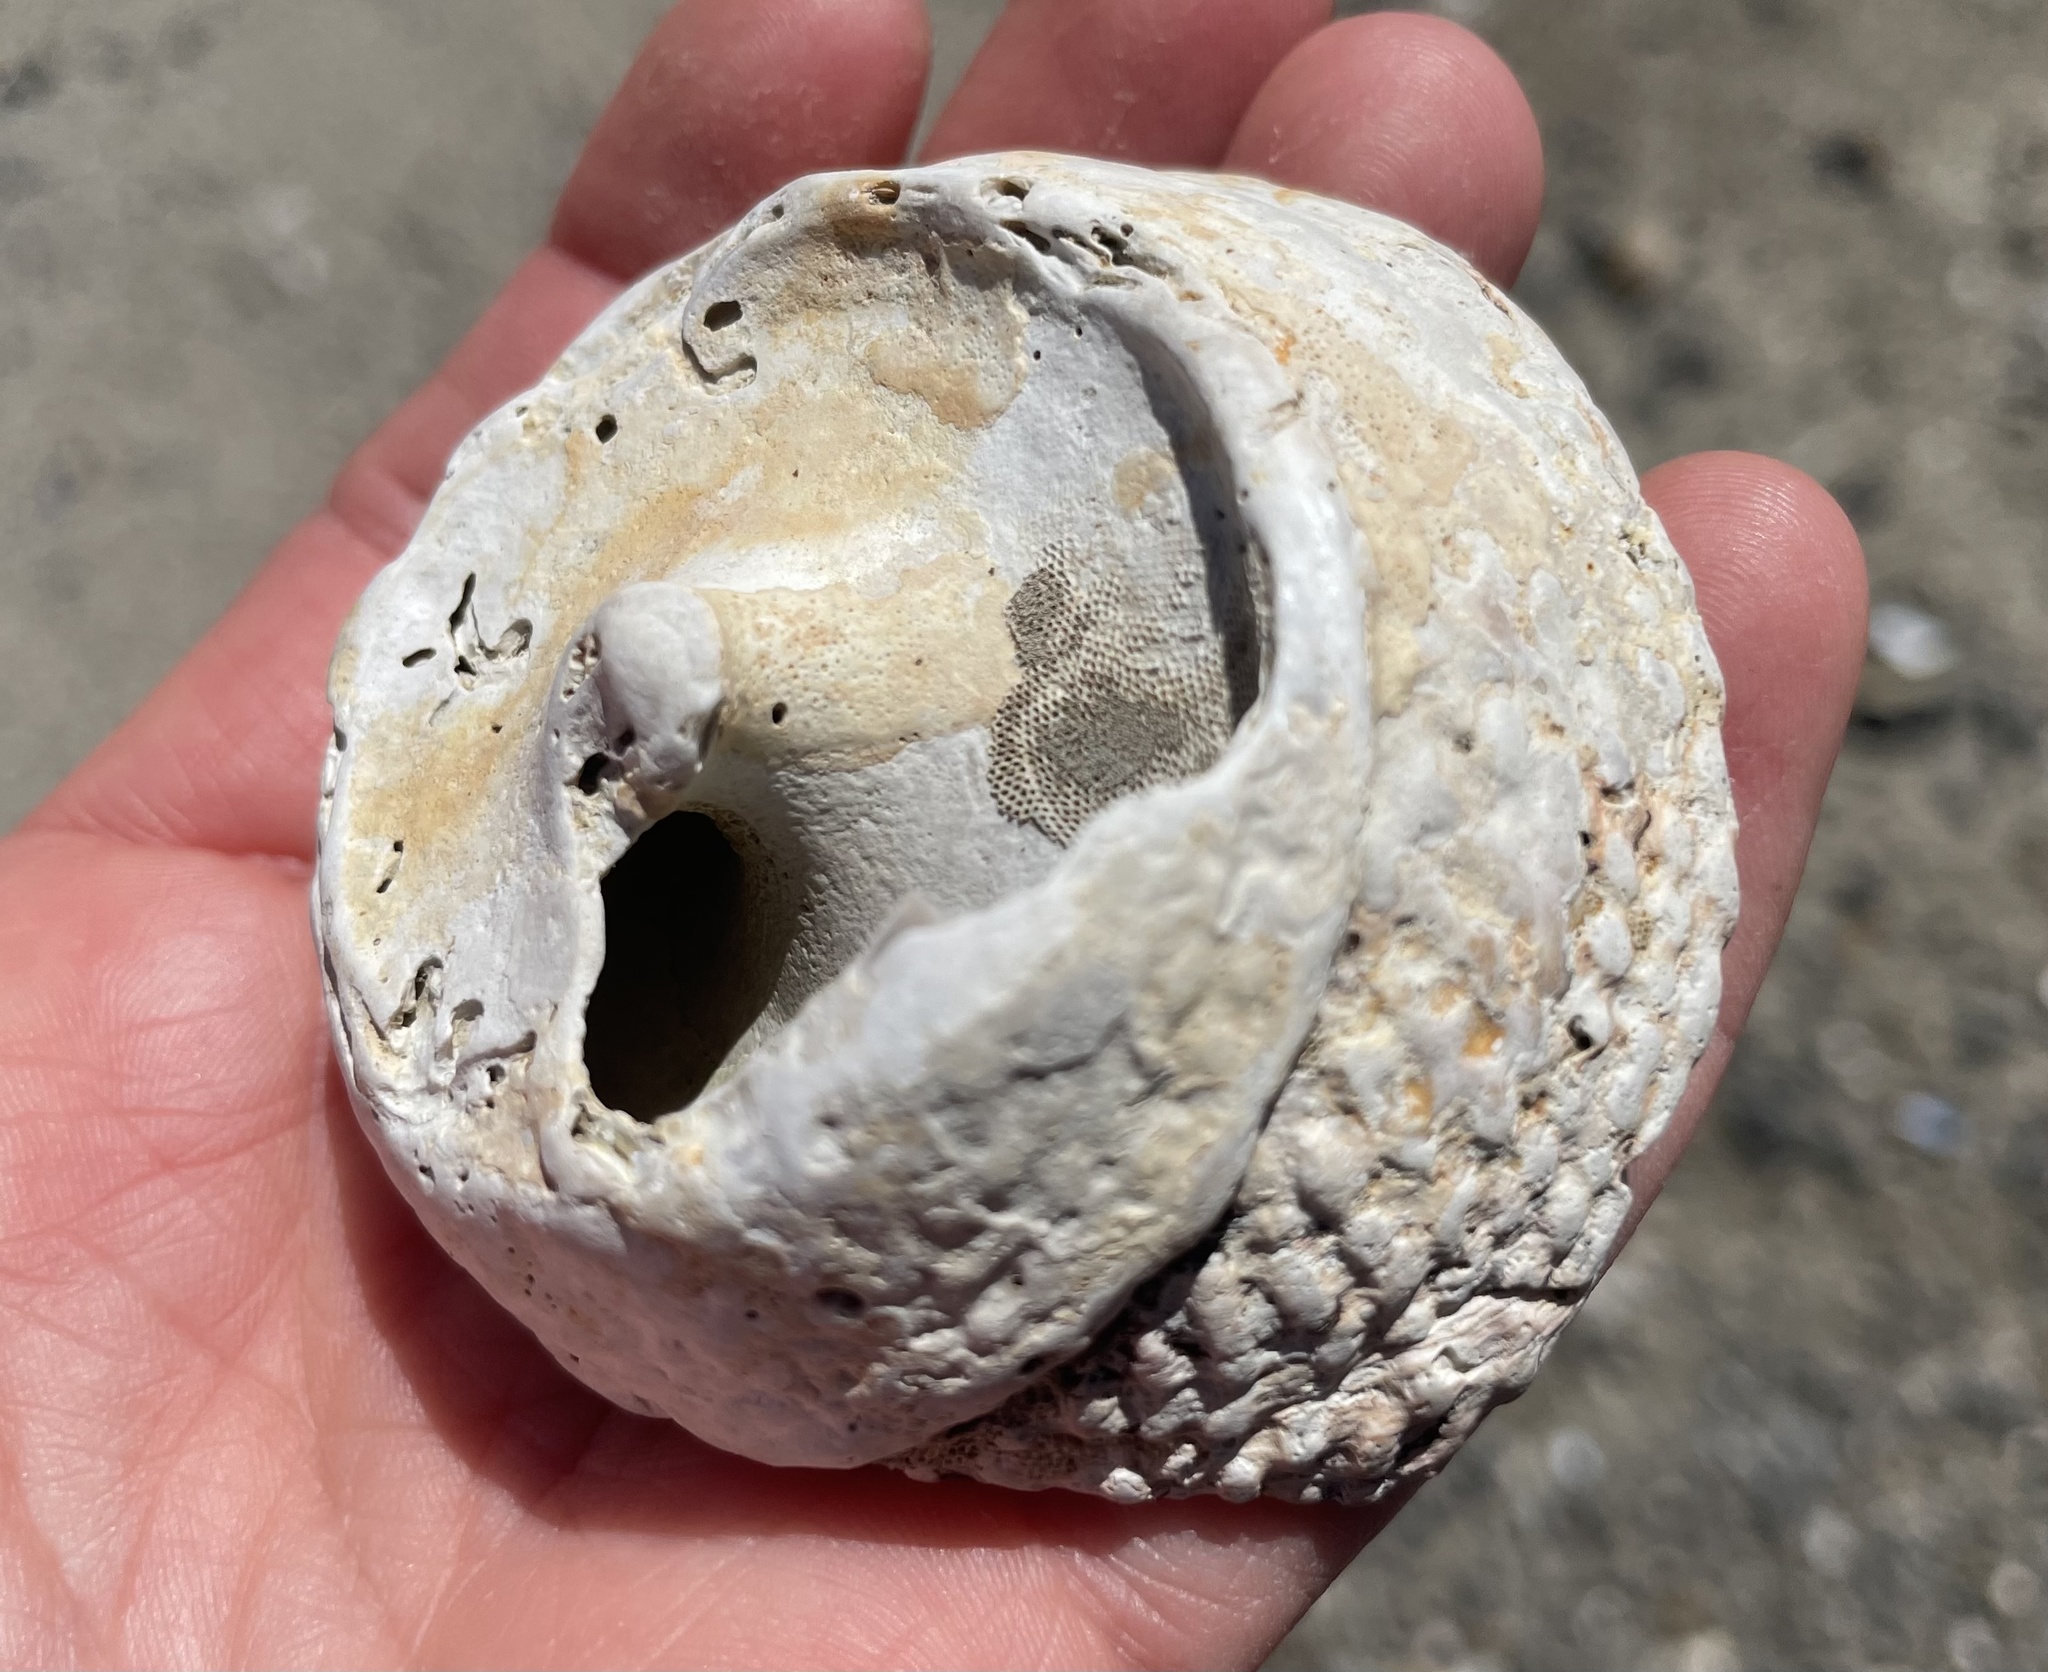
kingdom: Animalia
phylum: Mollusca
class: Gastropoda
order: Trochida
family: Turbinidae
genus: Pomaulax
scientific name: Pomaulax gibberosus
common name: Red turban
